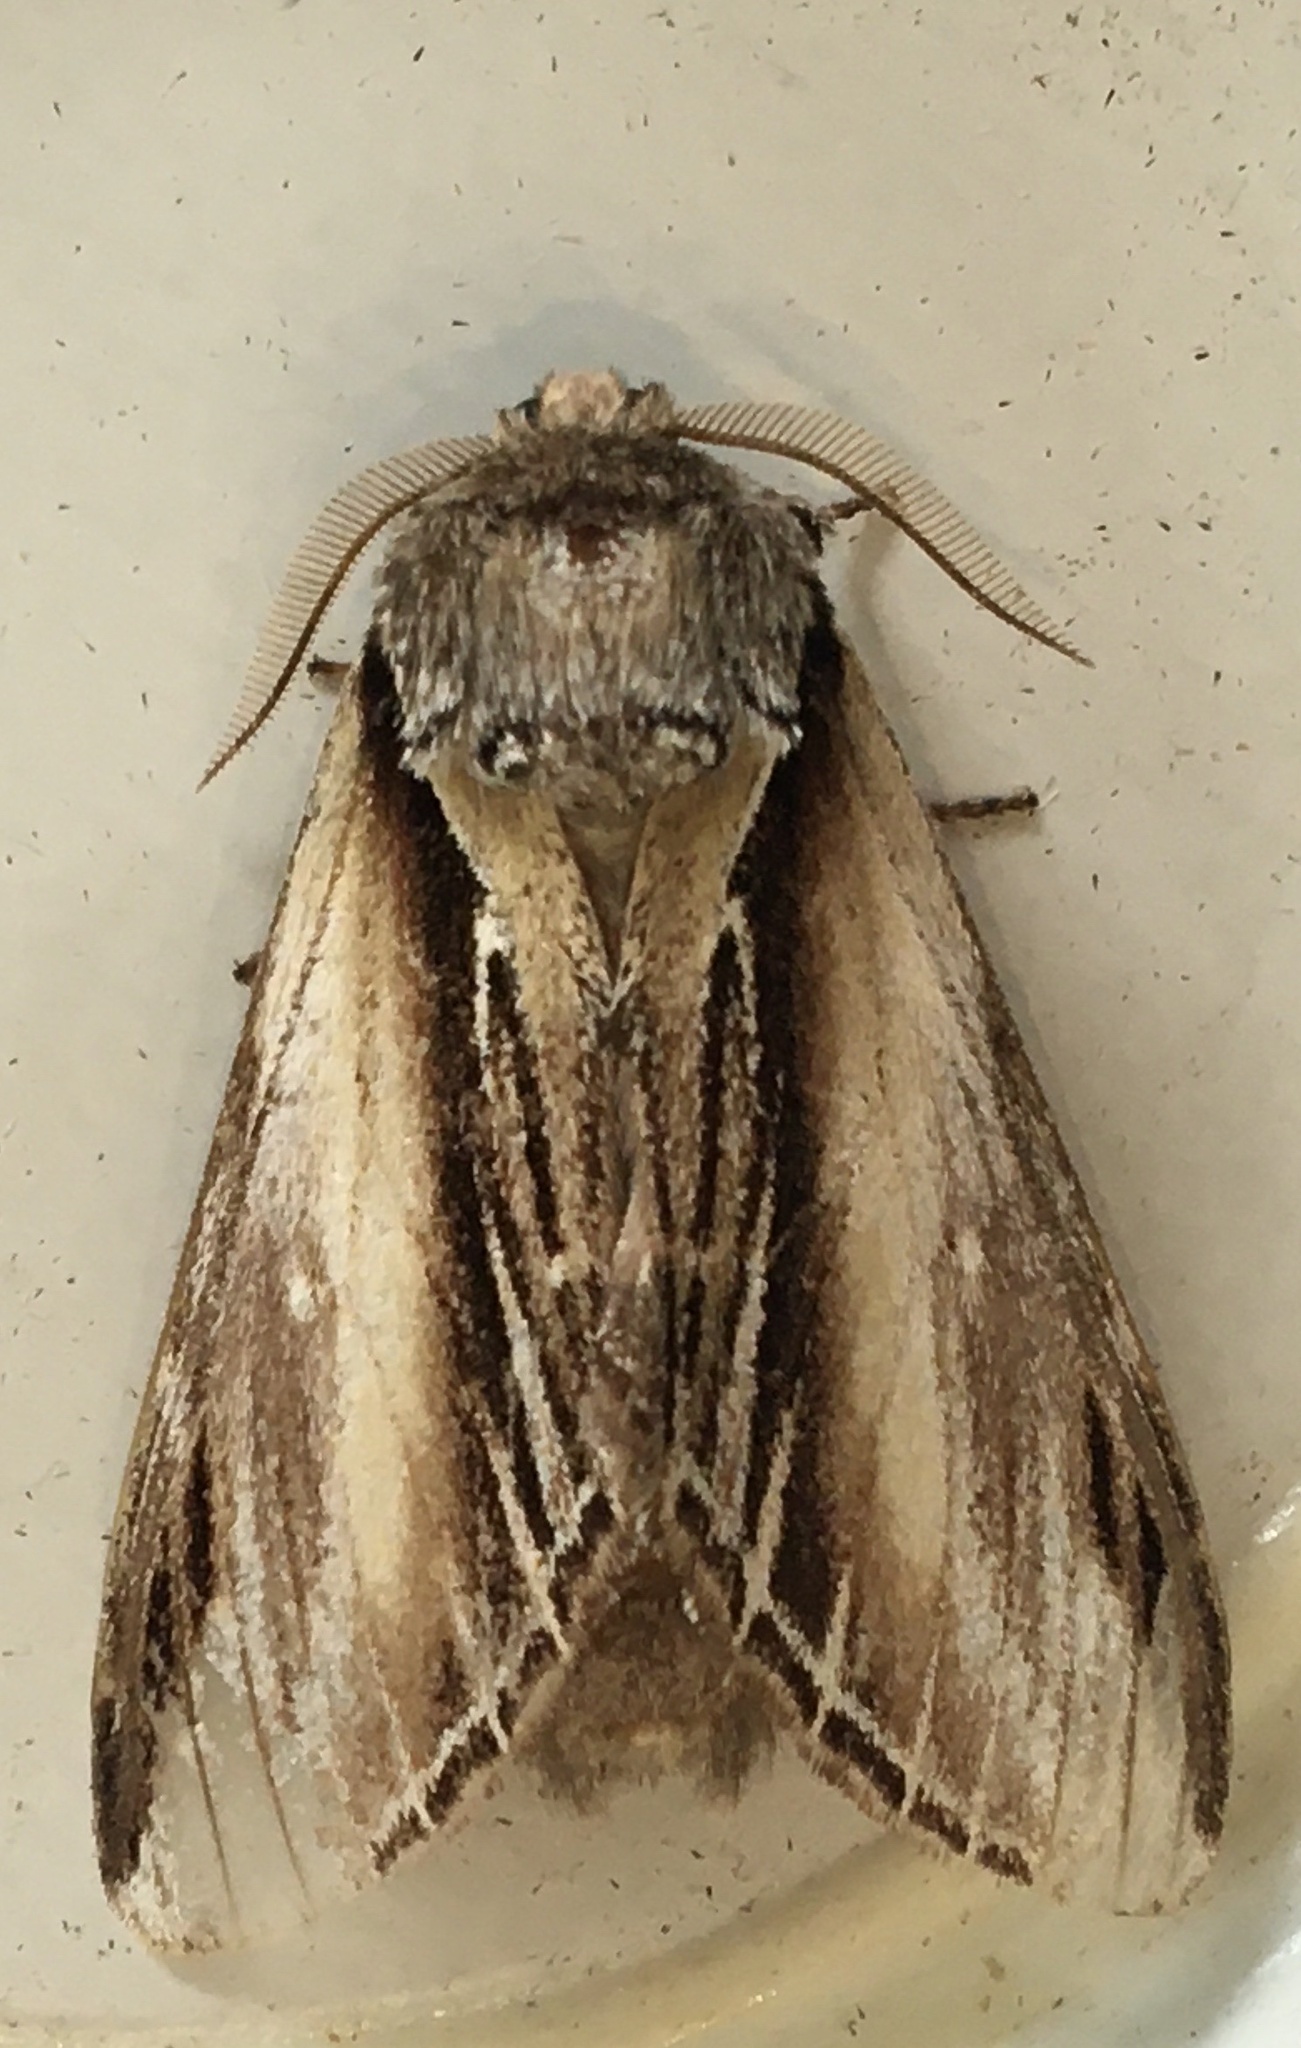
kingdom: Animalia
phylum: Arthropoda
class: Insecta
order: Lepidoptera
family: Notodontidae
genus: Pheosia
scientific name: Pheosia tremula
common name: Swallow prominent
